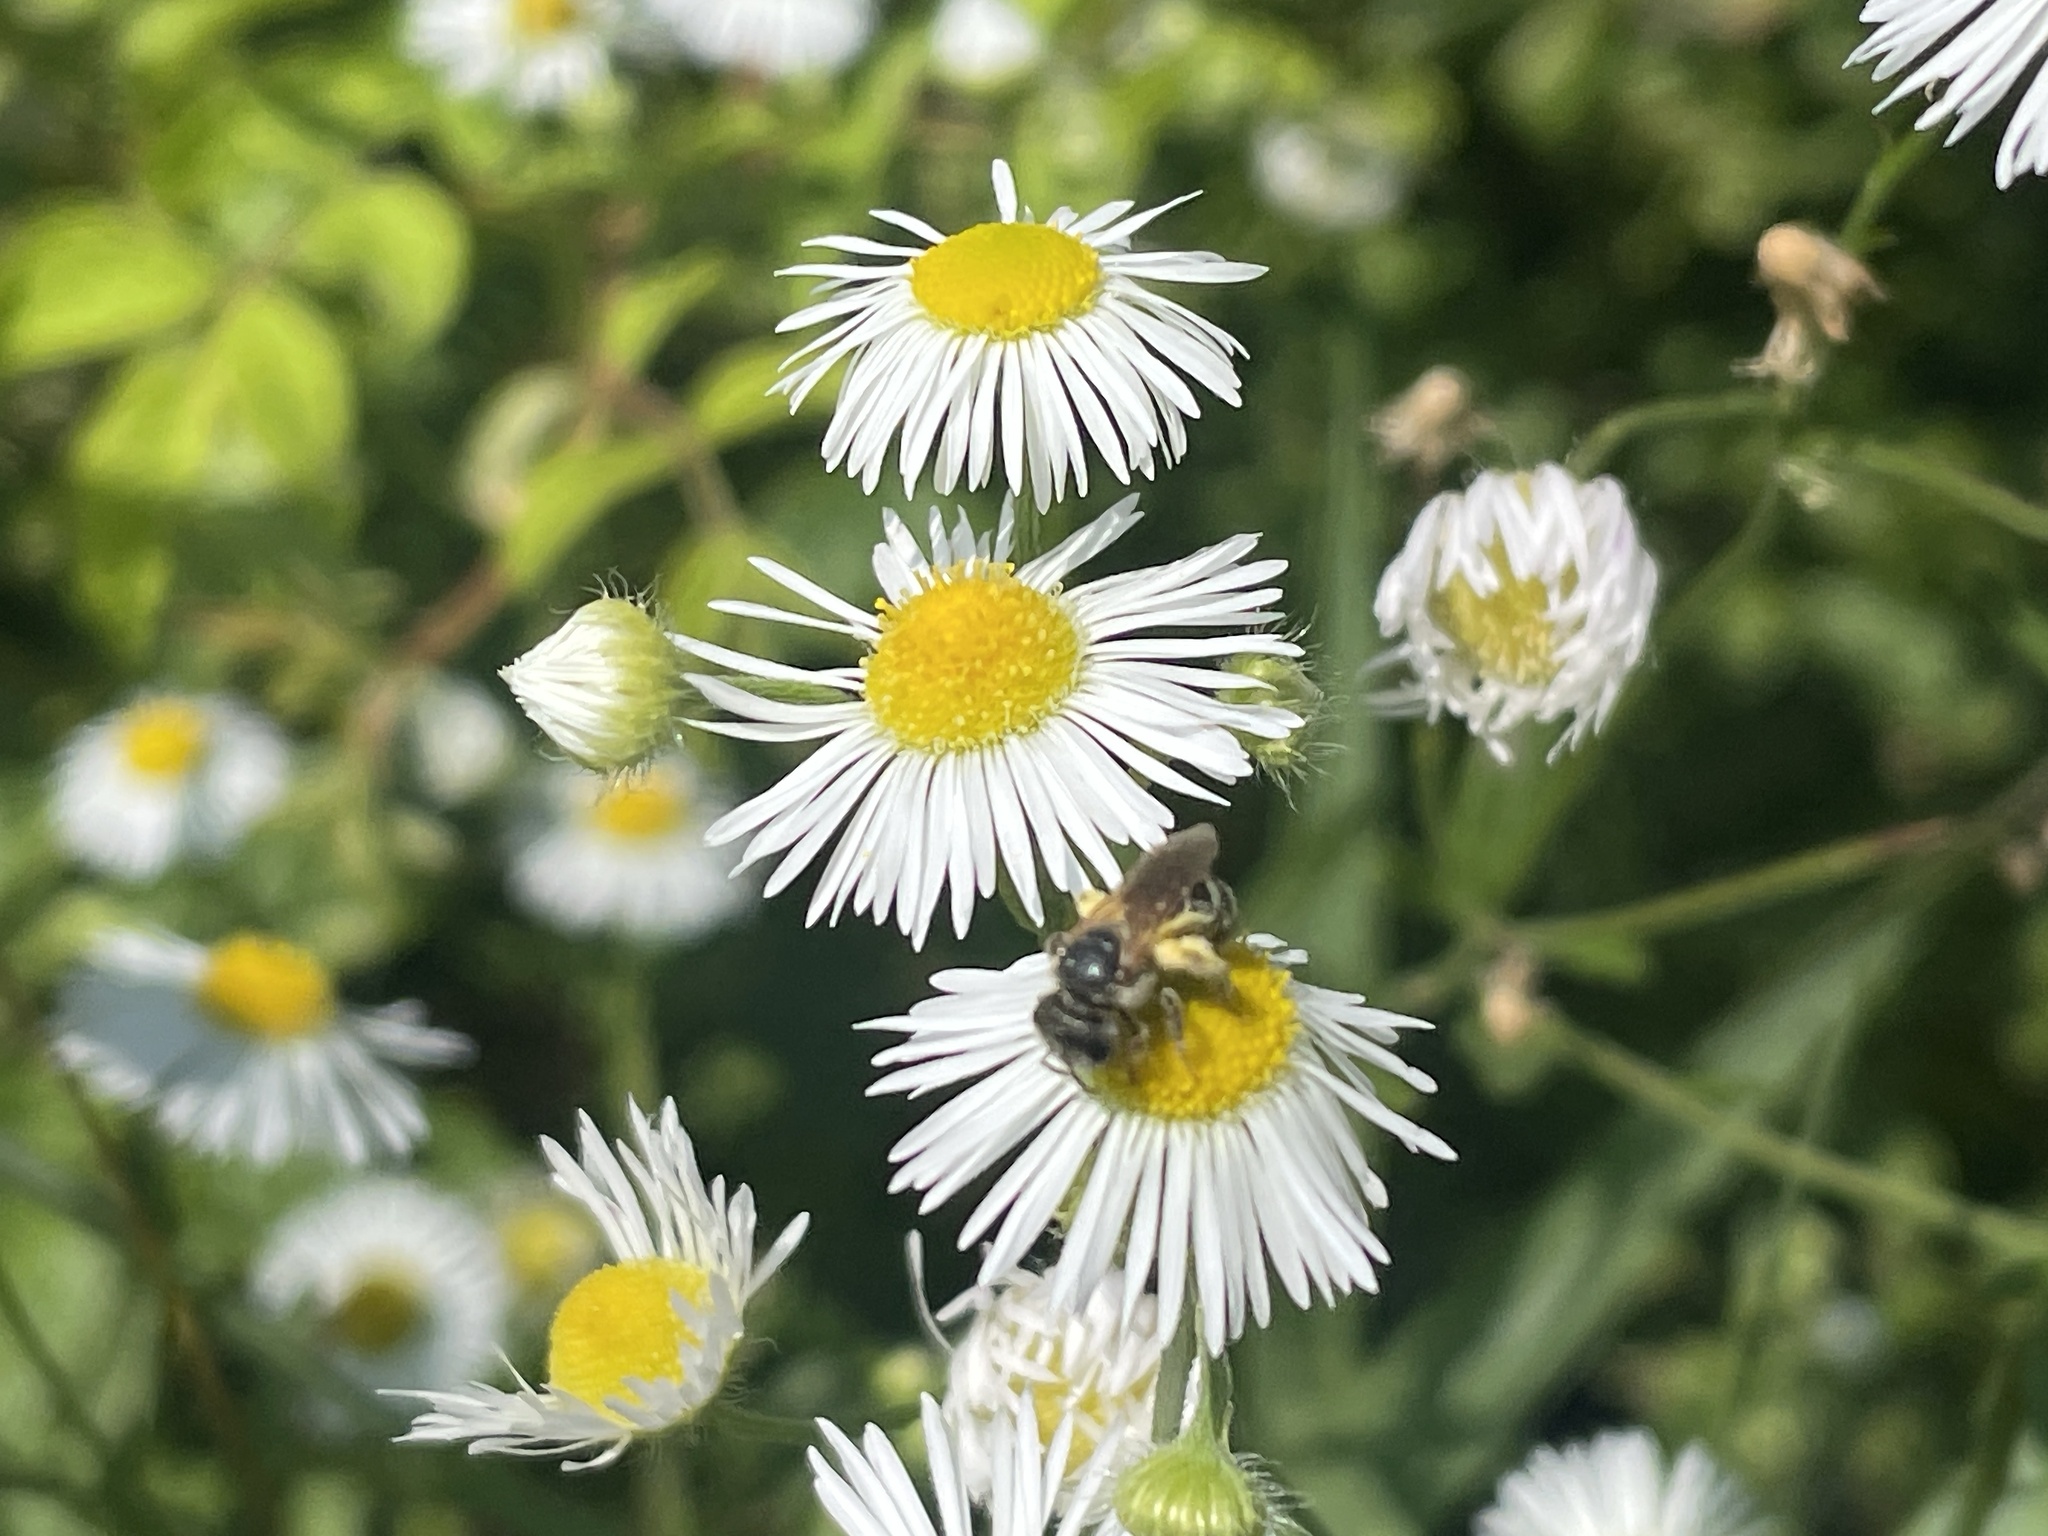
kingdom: Animalia
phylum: Arthropoda
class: Insecta
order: Hymenoptera
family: Halictidae
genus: Halictus
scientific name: Halictus ligatus
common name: Ligated furrow bee
